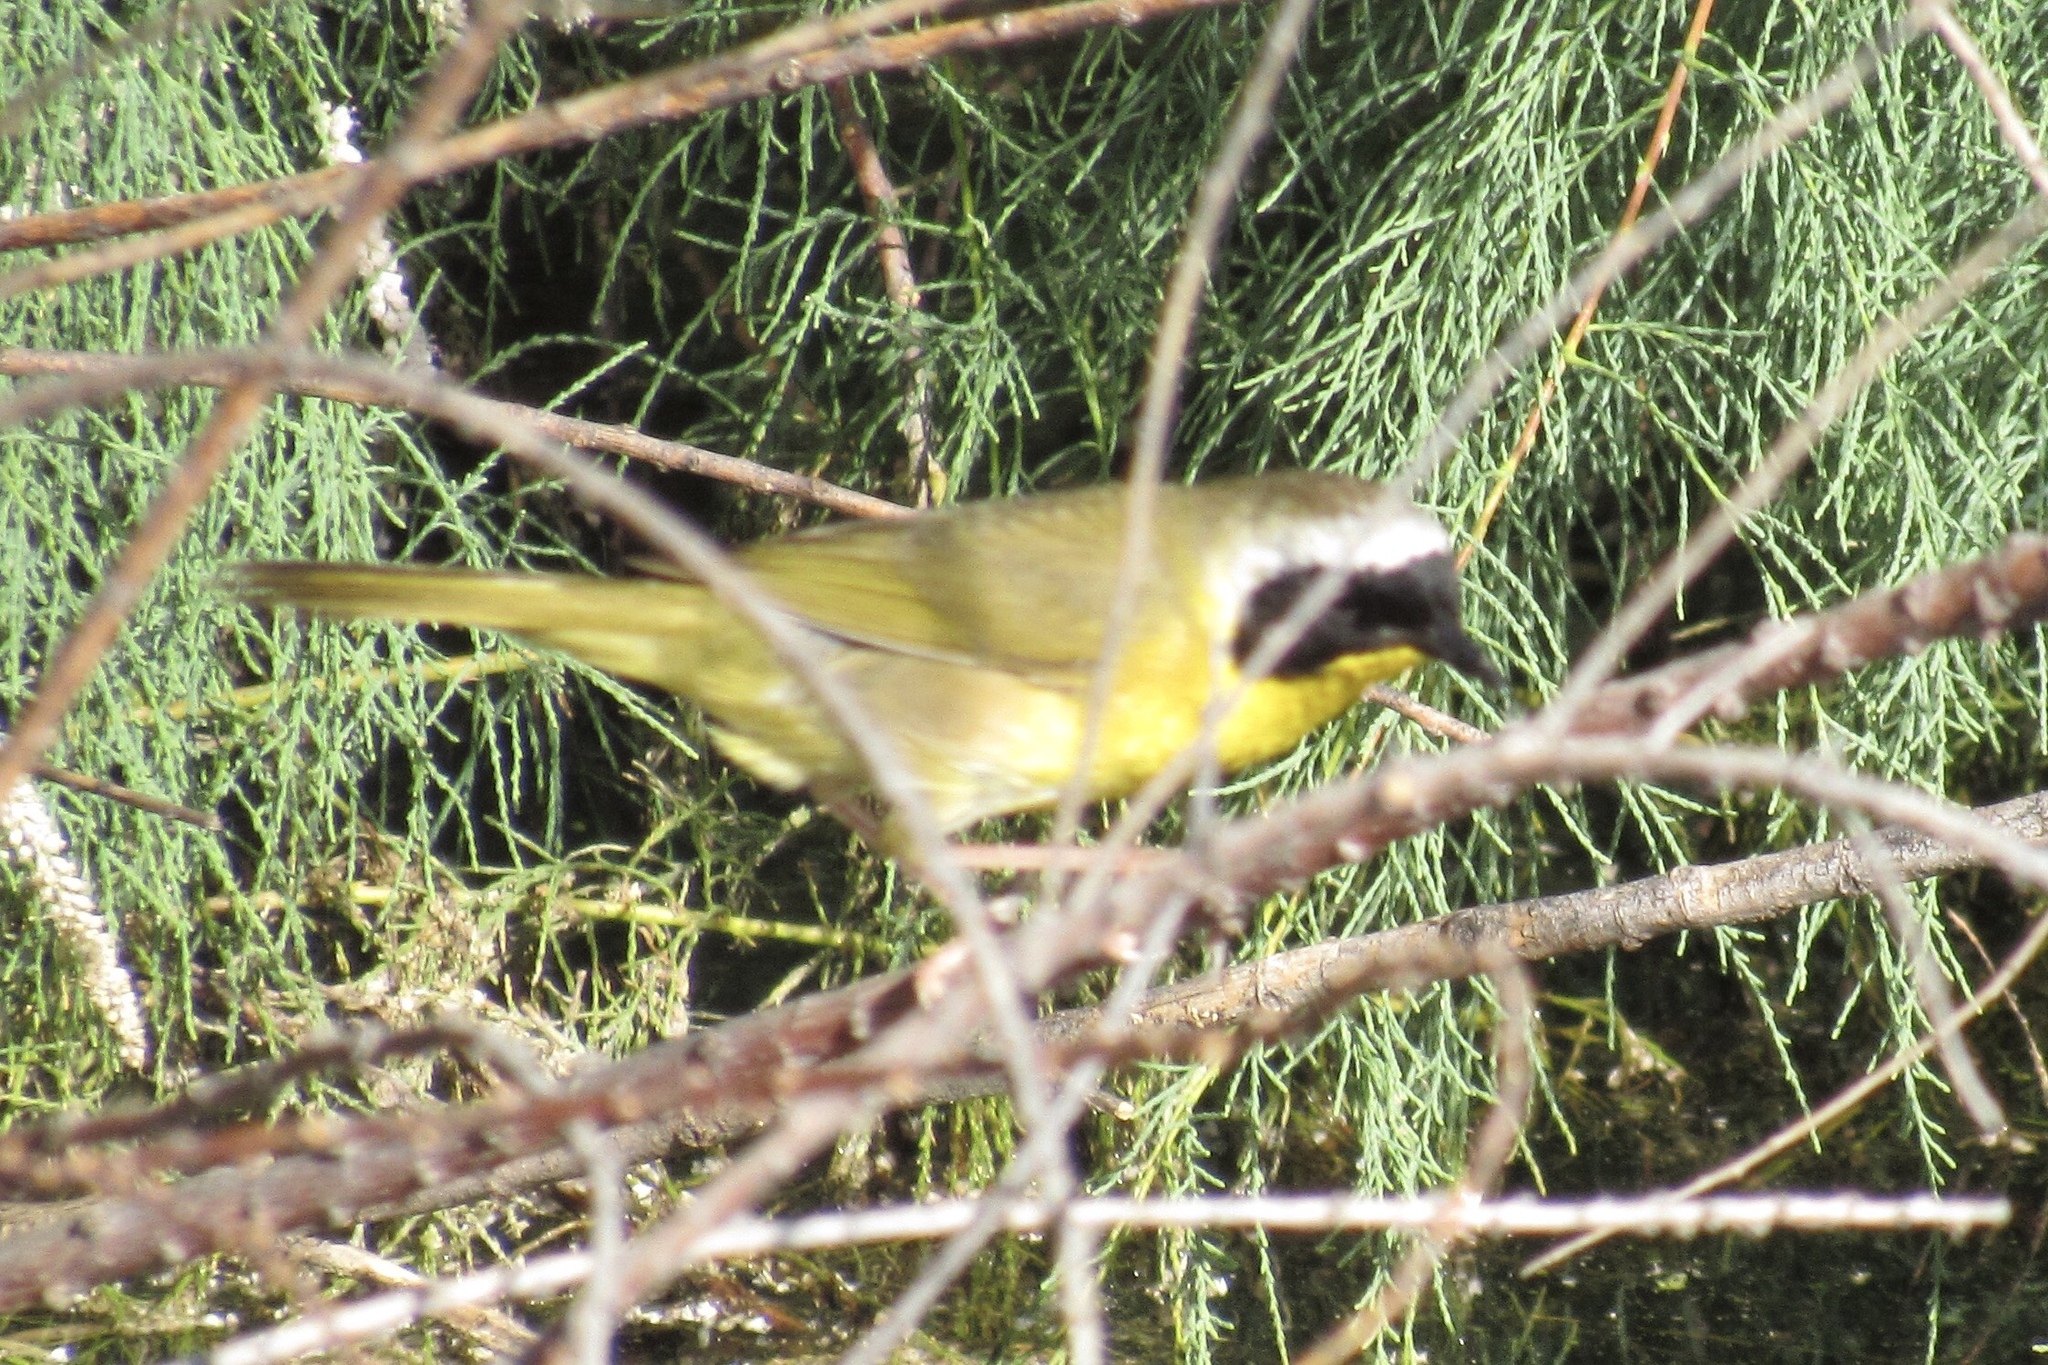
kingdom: Animalia
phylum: Chordata
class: Aves
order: Passeriformes
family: Parulidae
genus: Geothlypis
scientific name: Geothlypis trichas
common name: Common yellowthroat
